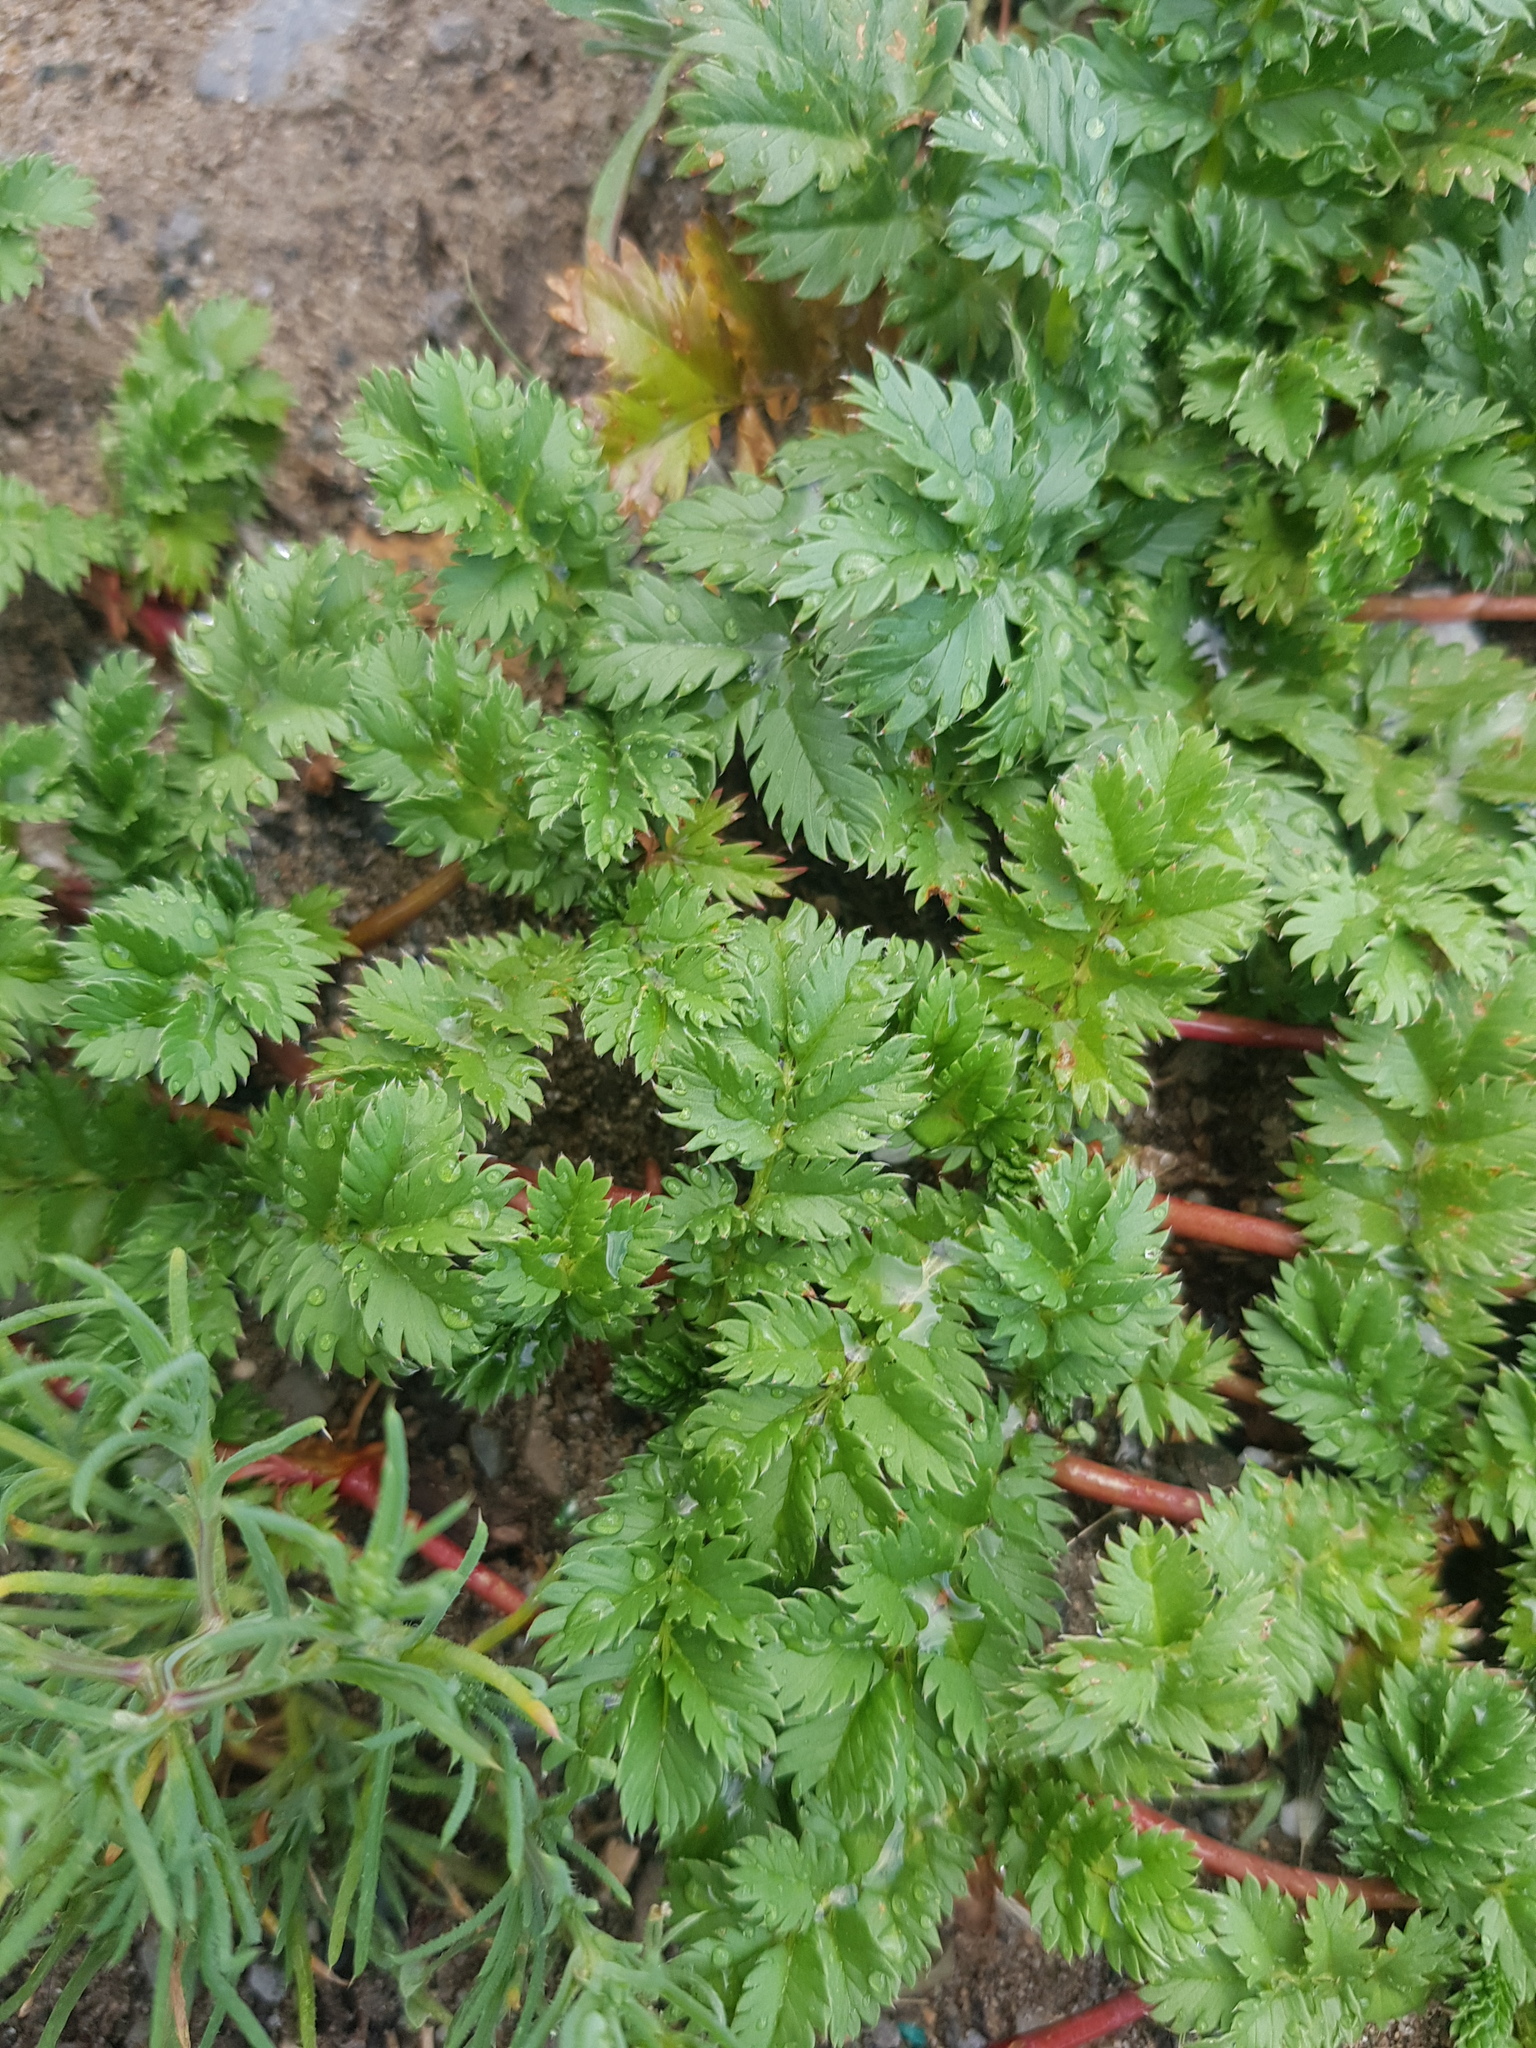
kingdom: Plantae
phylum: Tracheophyta
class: Magnoliopsida
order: Rosales
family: Rosaceae
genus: Argentina
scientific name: Argentina anserina
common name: Common silverweed
